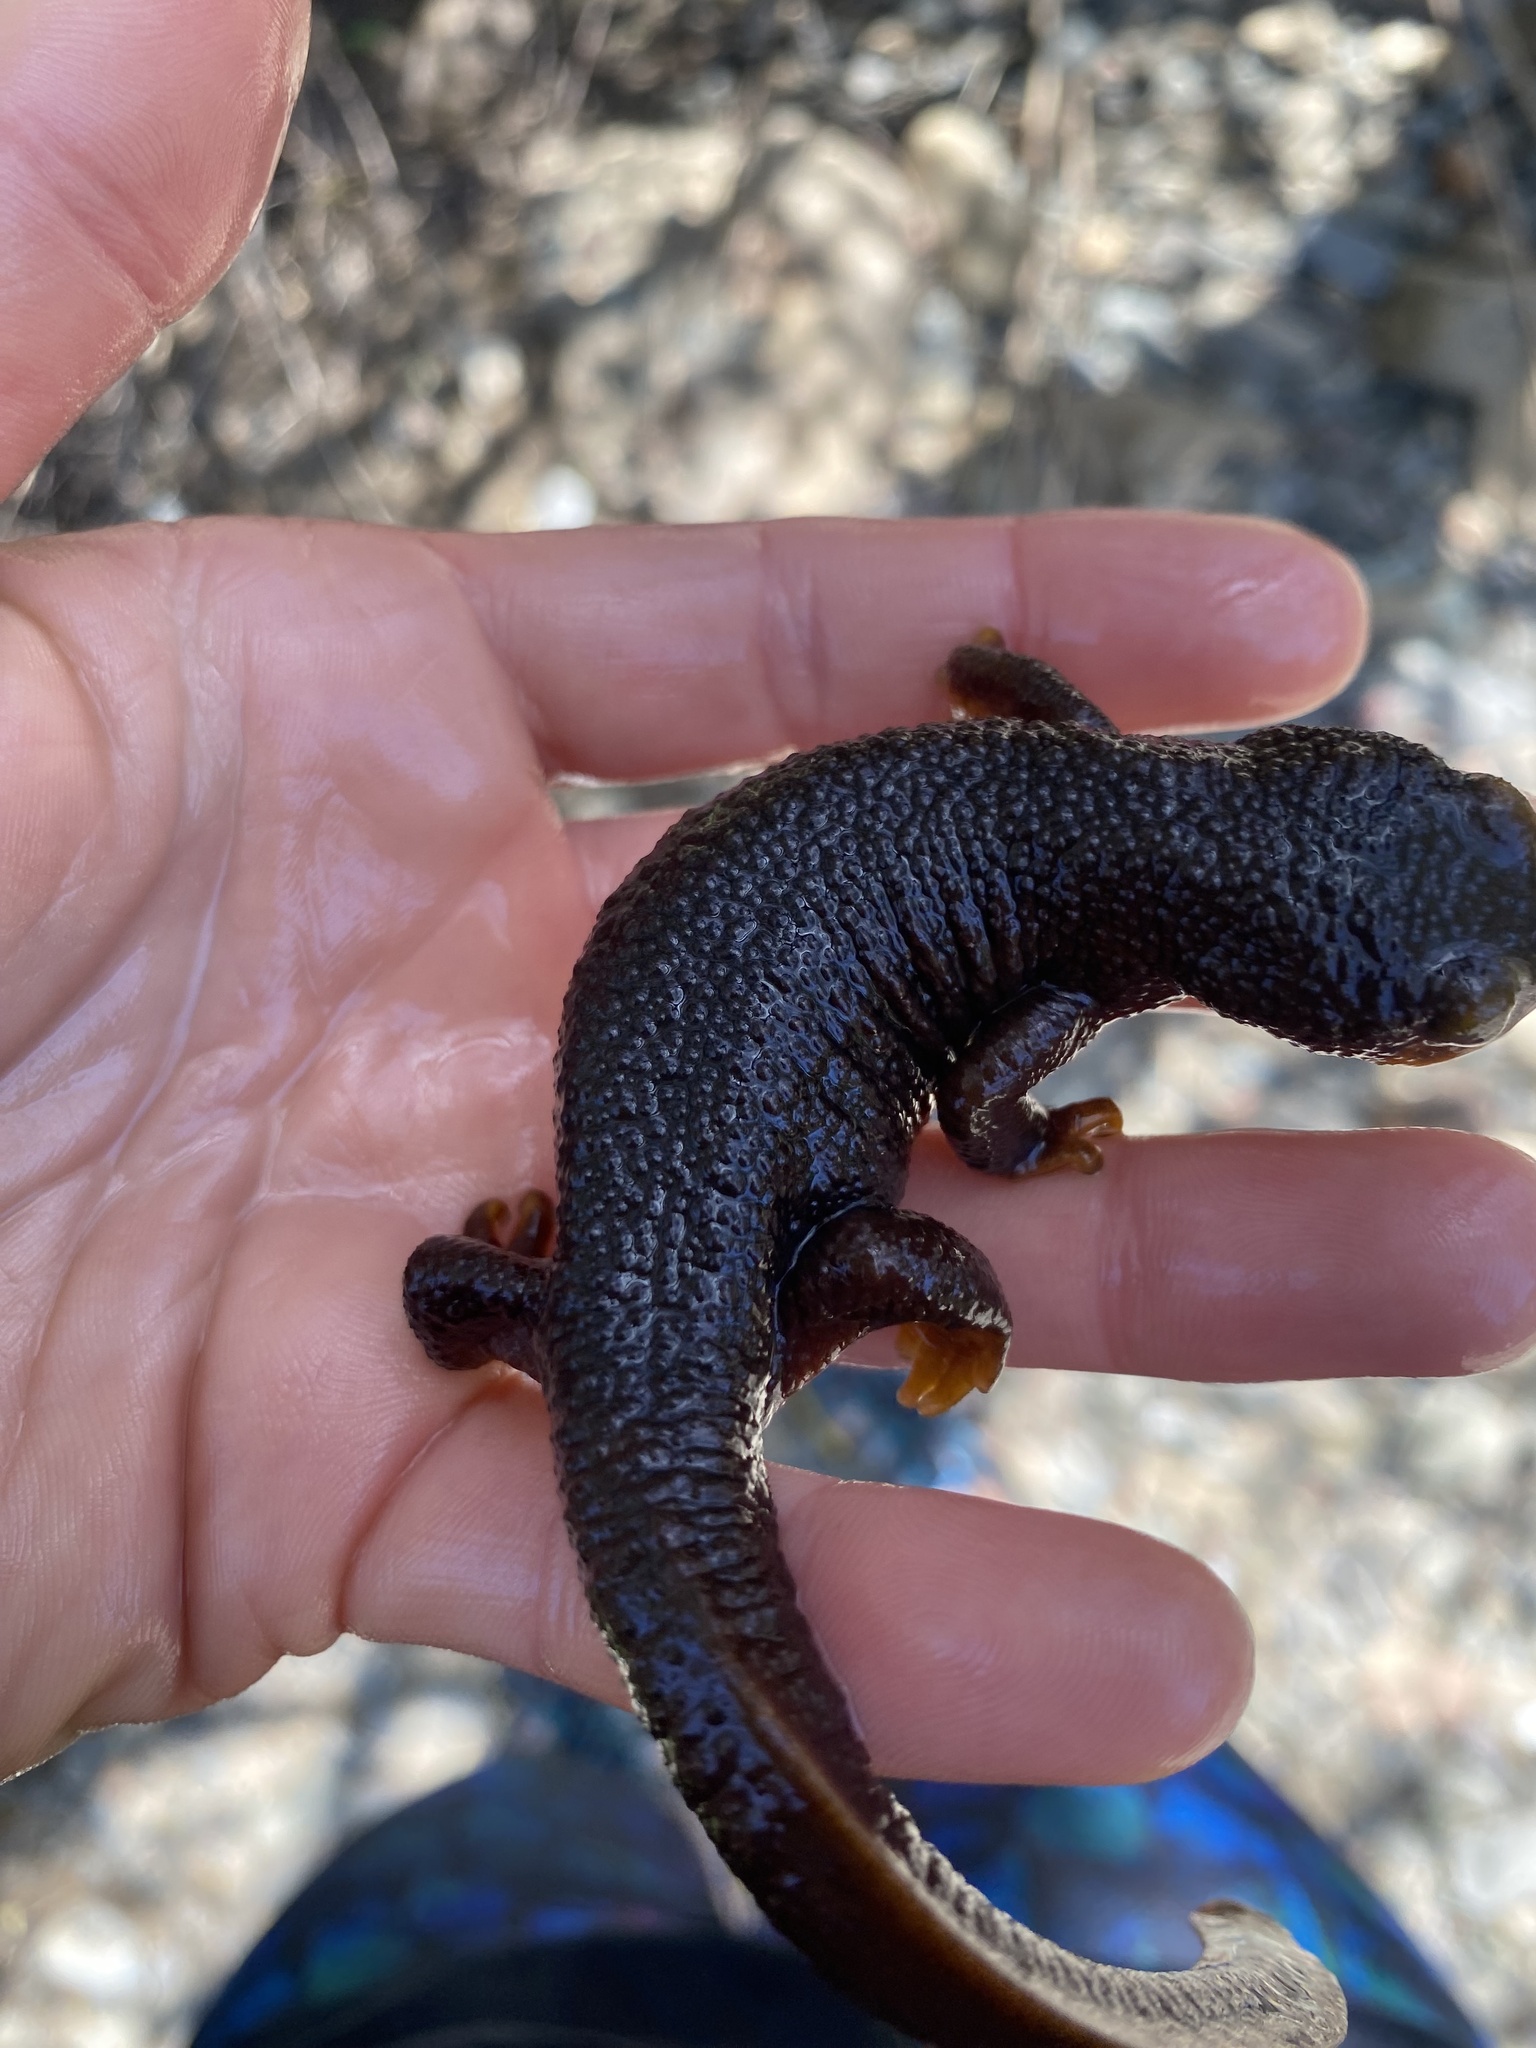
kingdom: Animalia
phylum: Chordata
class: Amphibia
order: Caudata
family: Salamandridae
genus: Taricha
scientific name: Taricha torosa
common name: California newt
